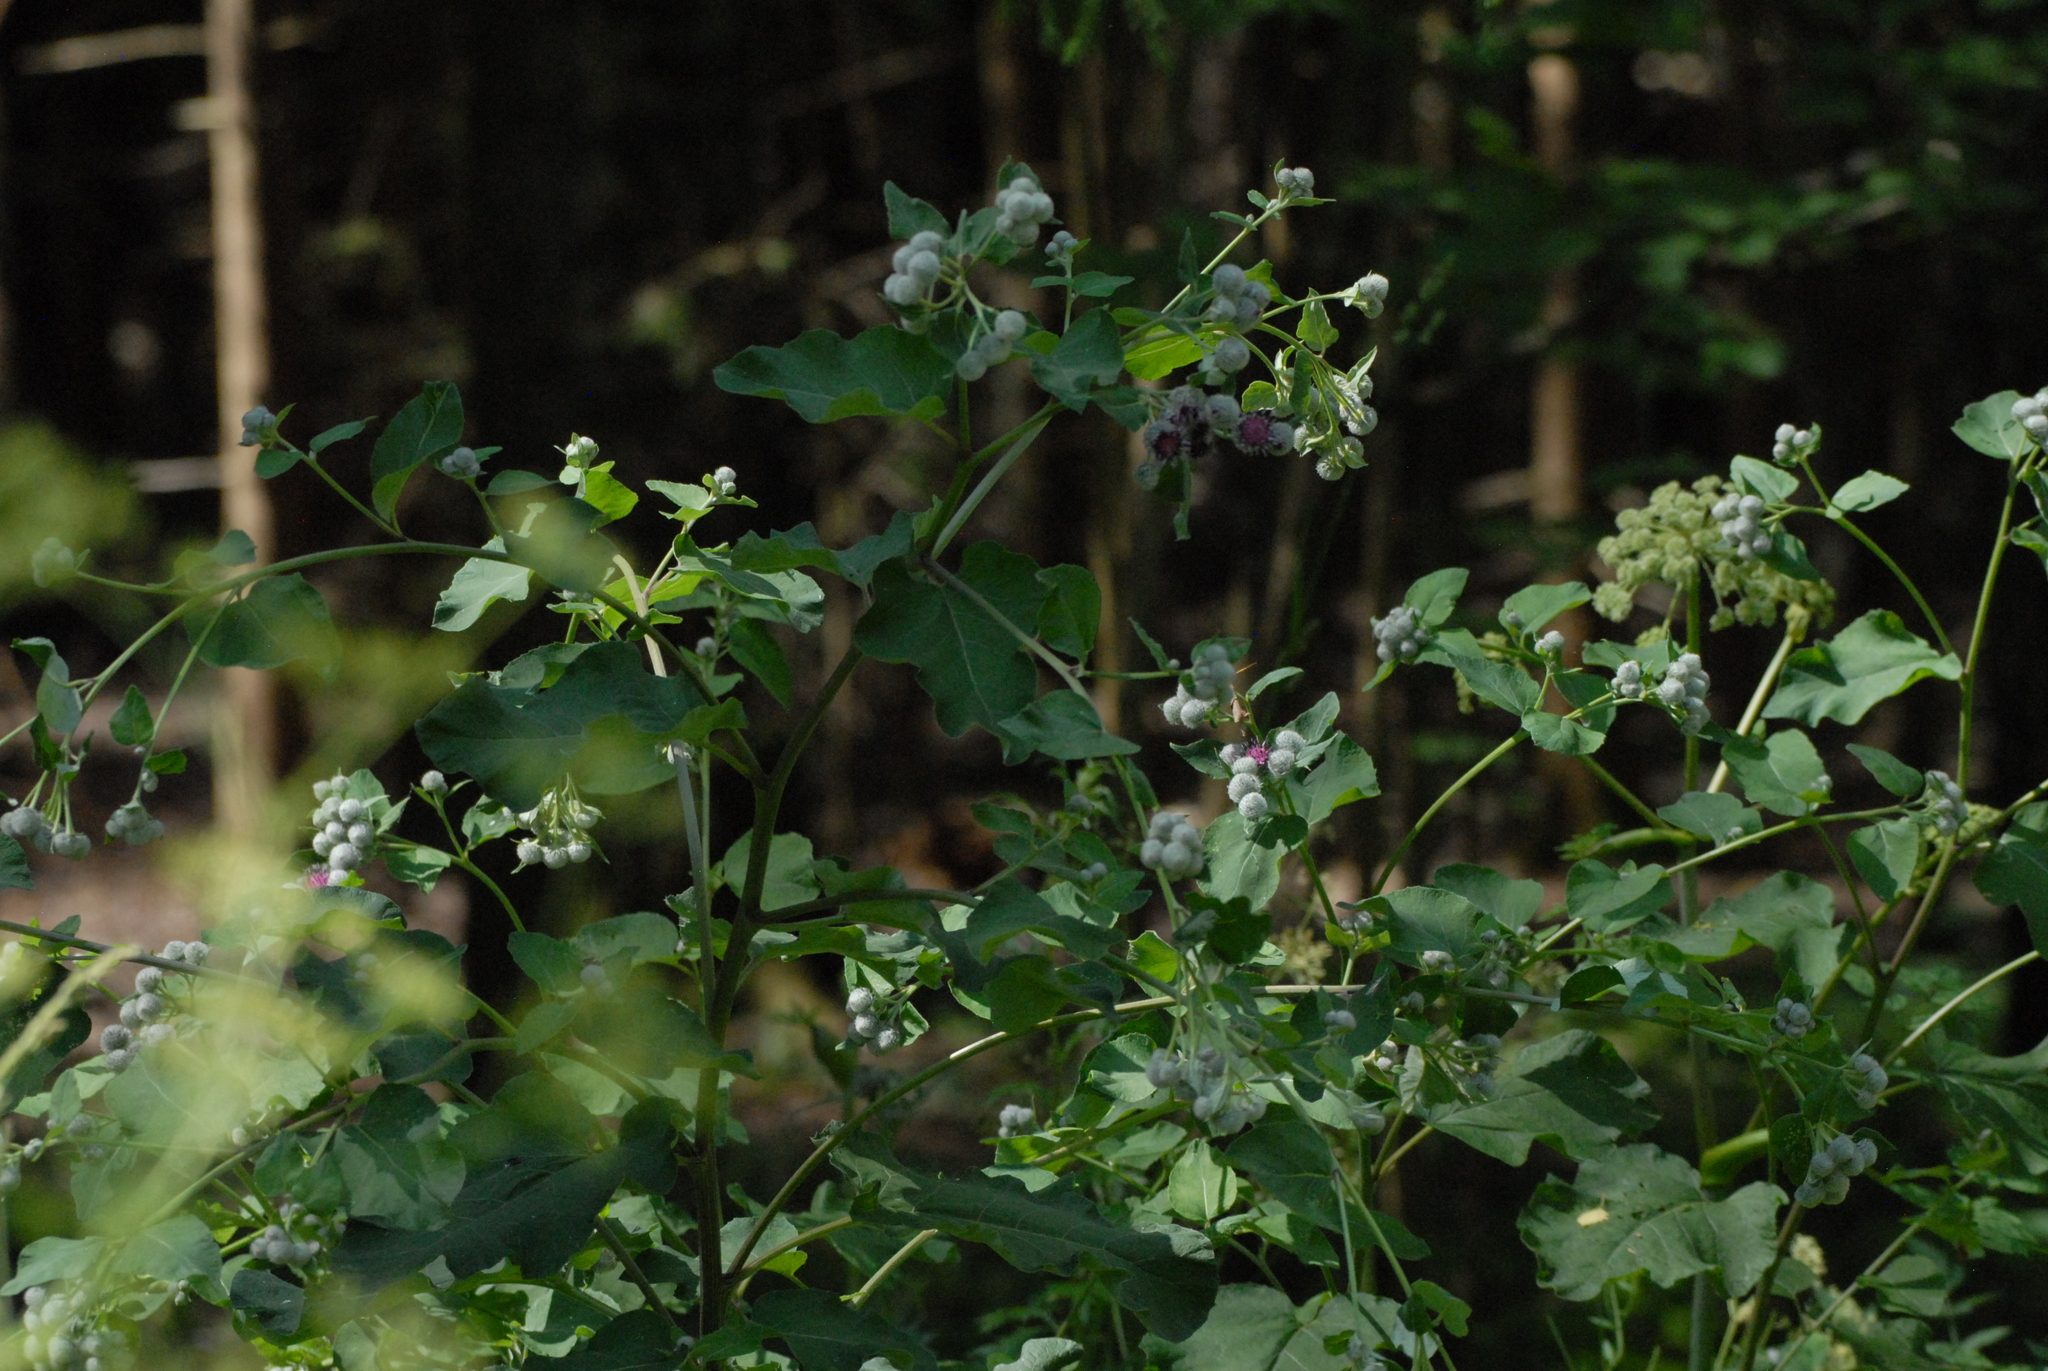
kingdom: Plantae
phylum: Tracheophyta
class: Magnoliopsida
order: Asterales
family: Asteraceae
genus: Arctium
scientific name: Arctium tomentosum
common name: Woolly burdock
